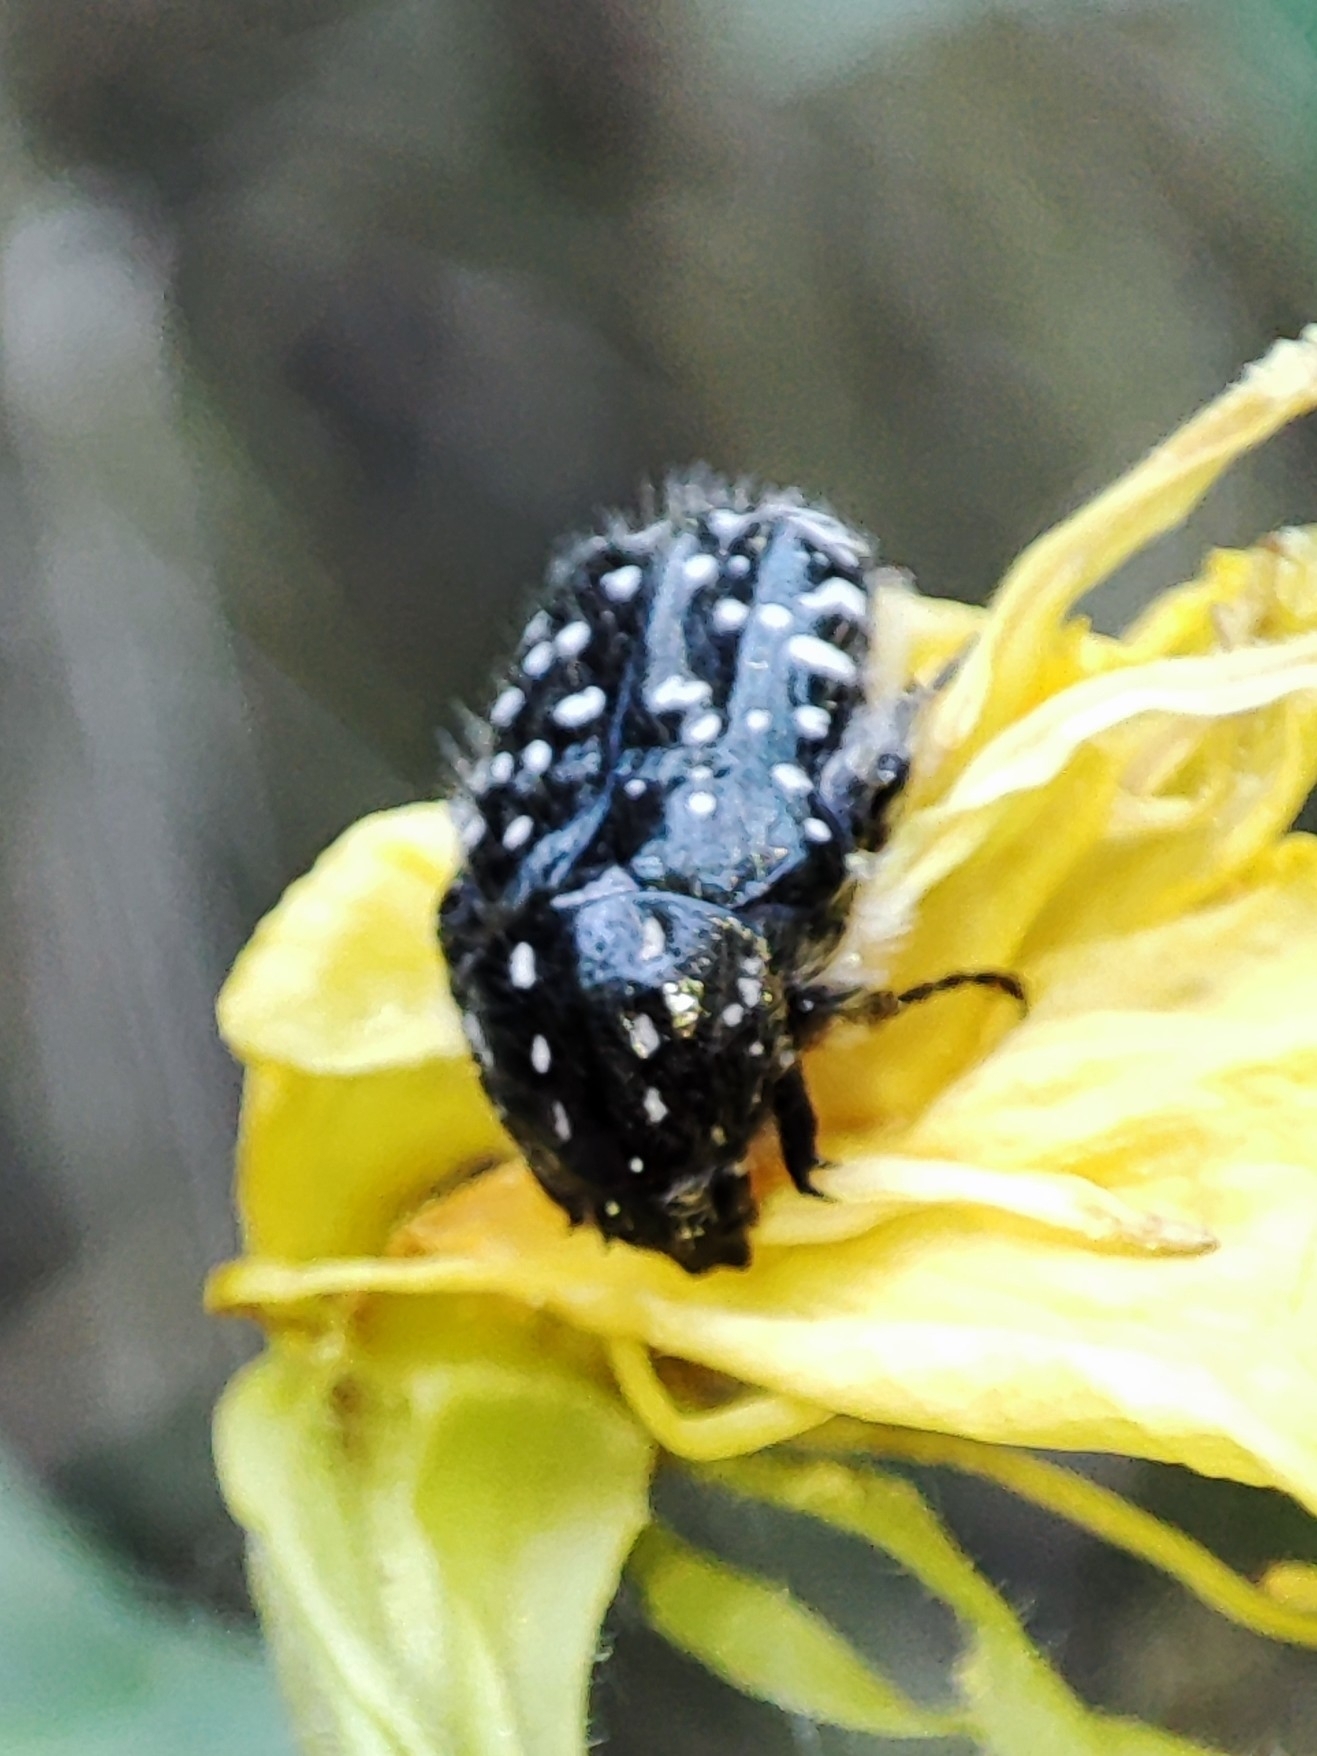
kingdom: Animalia
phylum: Arthropoda
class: Insecta
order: Coleoptera
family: Scarabaeidae
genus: Oxythyrea
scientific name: Oxythyrea funesta
